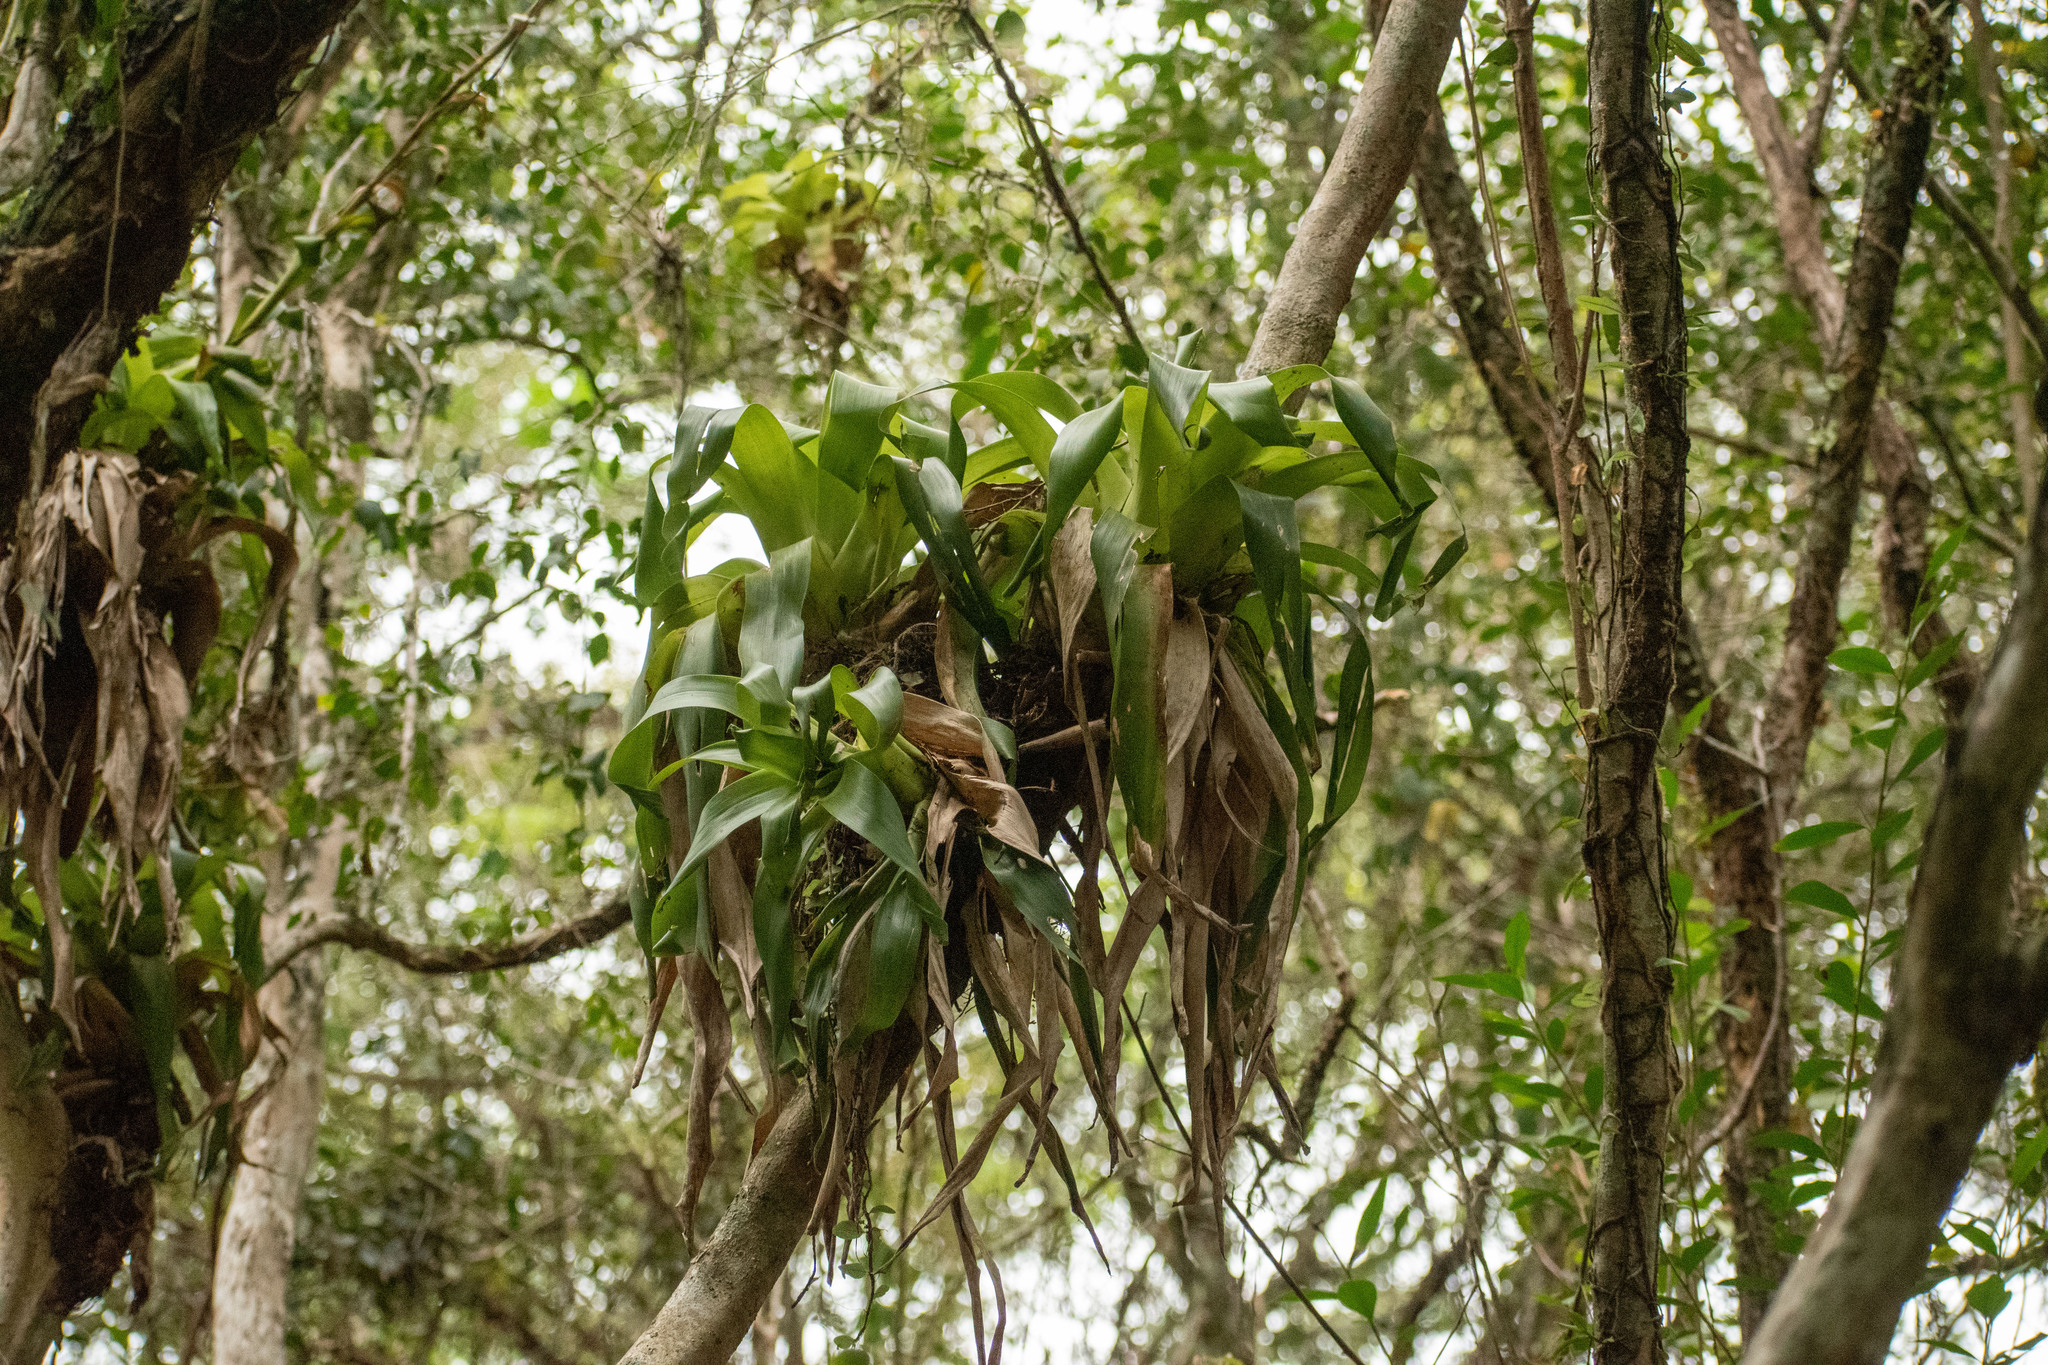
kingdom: Plantae
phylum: Tracheophyta
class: Liliopsida
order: Poales
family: Bromeliaceae
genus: Vriesea
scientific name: Vriesea friburgensis
